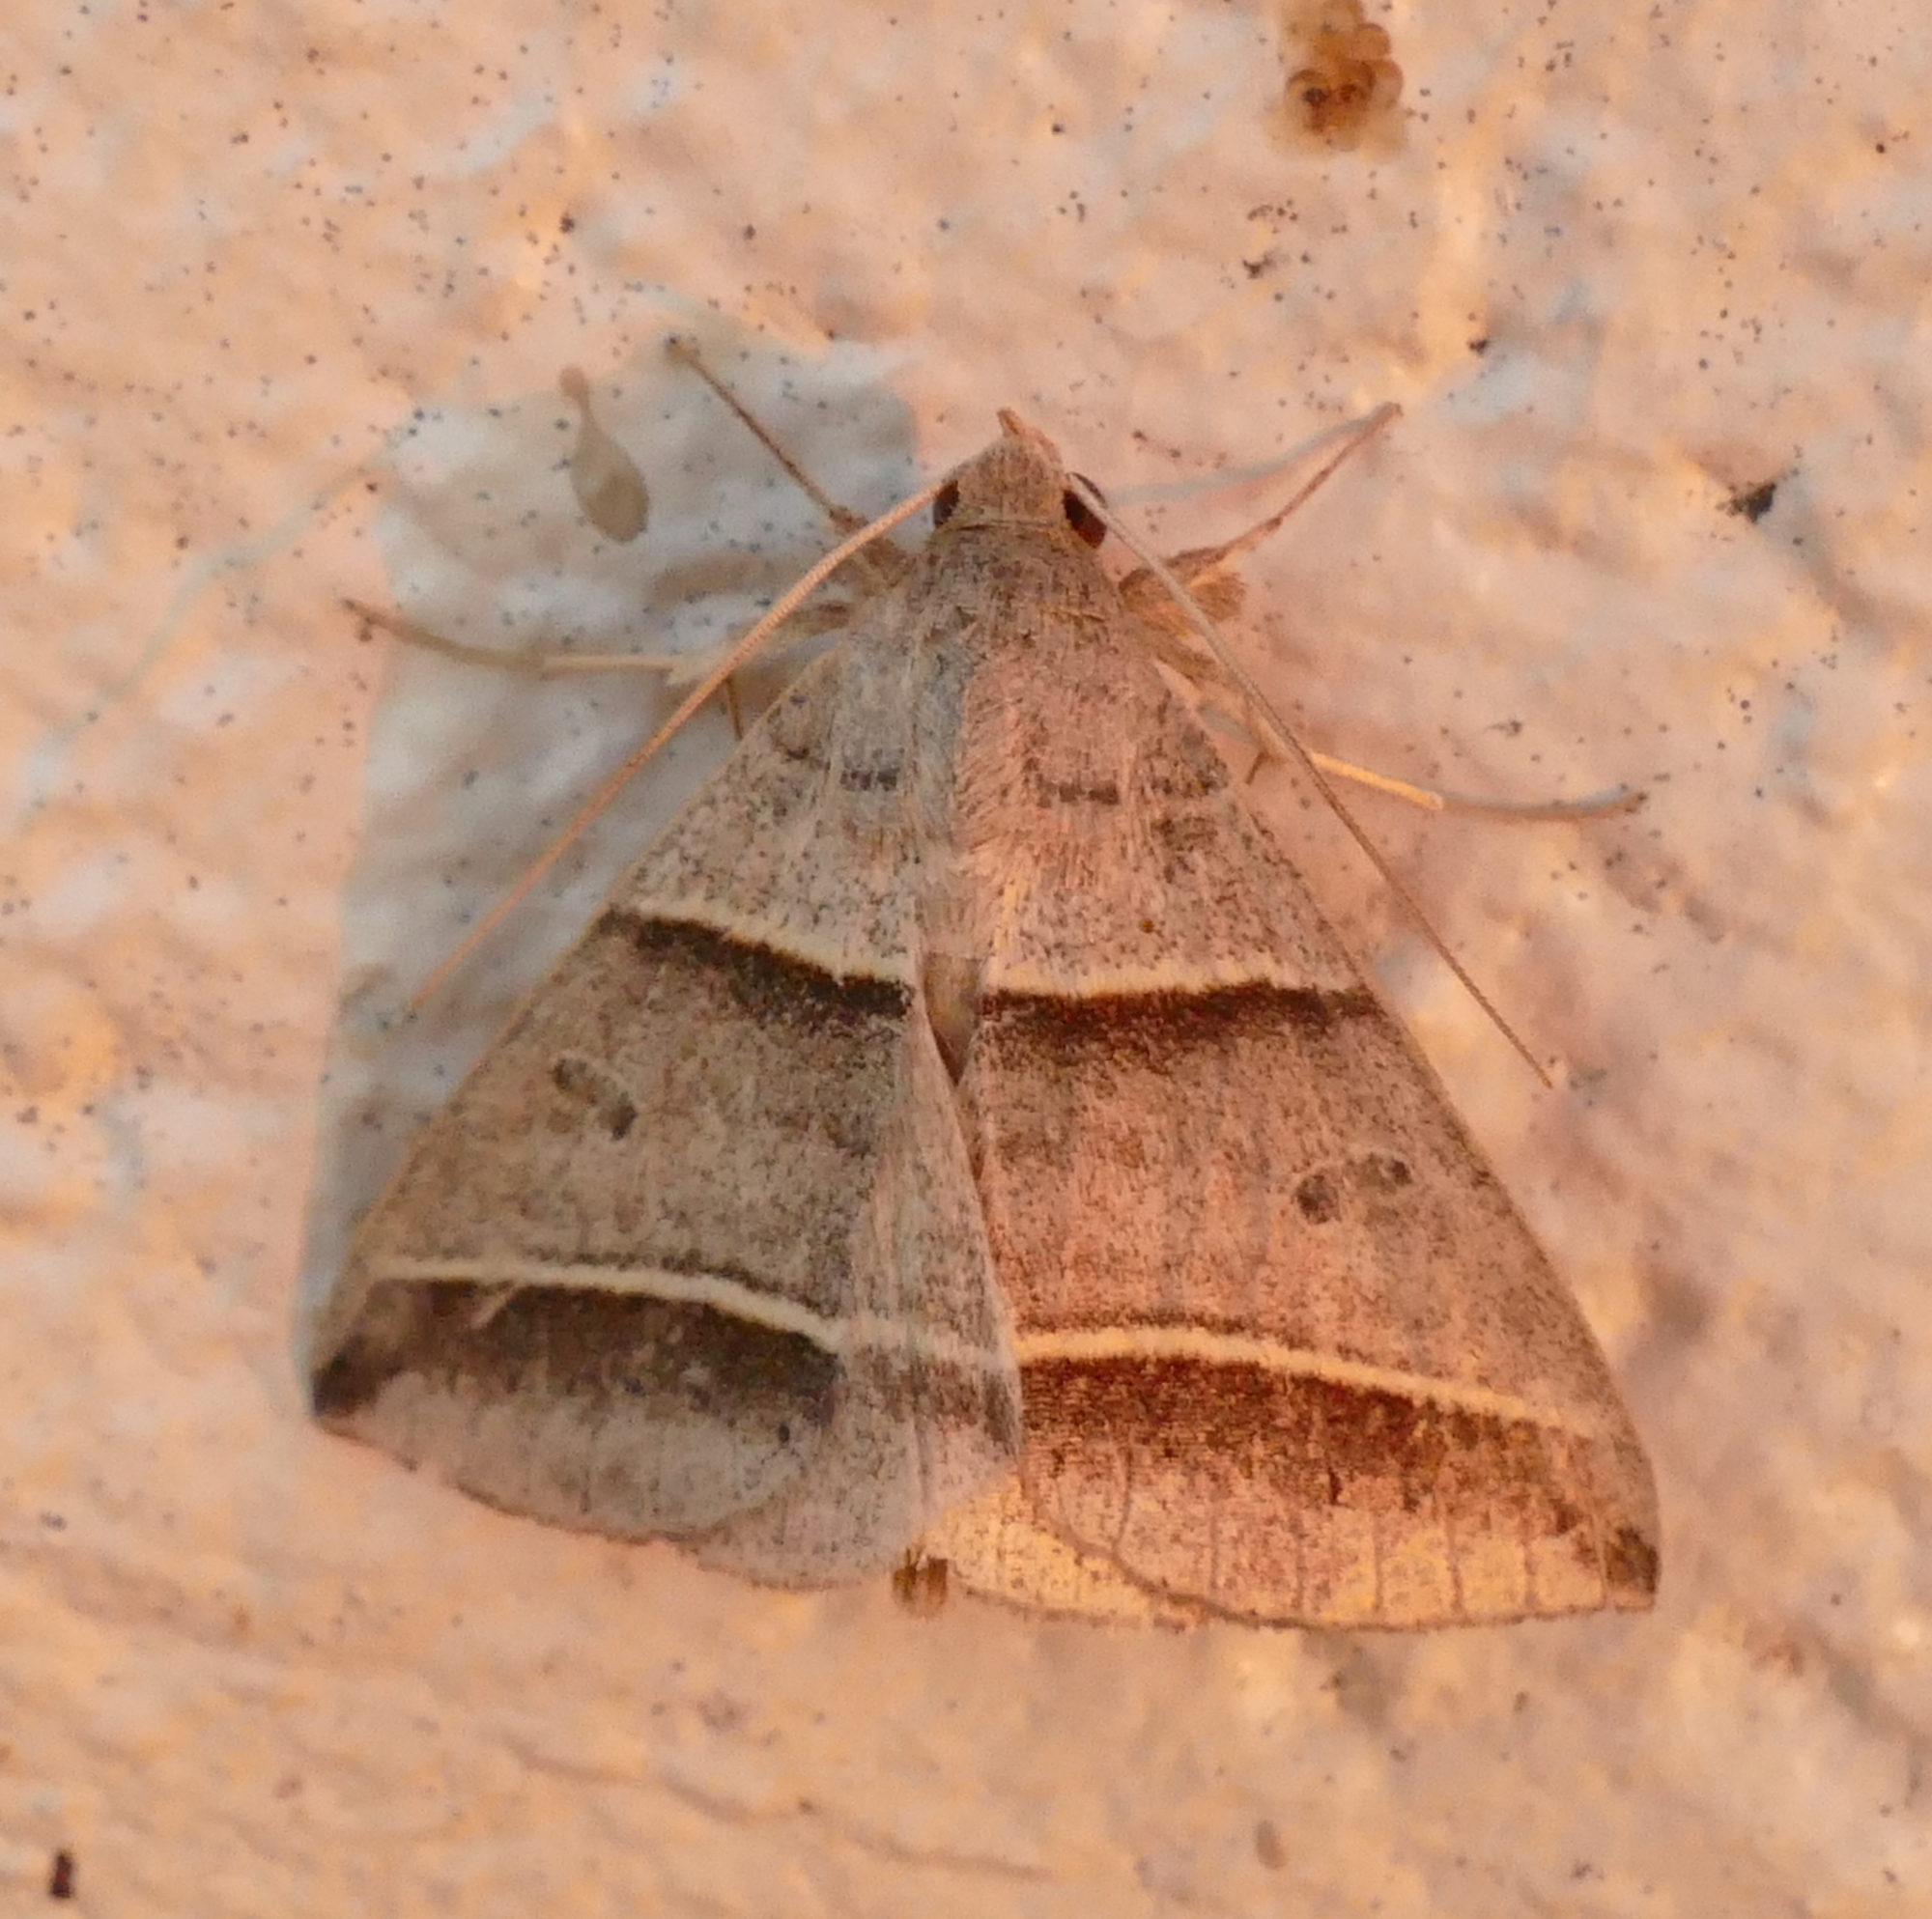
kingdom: Animalia
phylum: Arthropoda
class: Insecta
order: Lepidoptera
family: Erebidae
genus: Ptichodis
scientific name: Ptichodis vinculum
